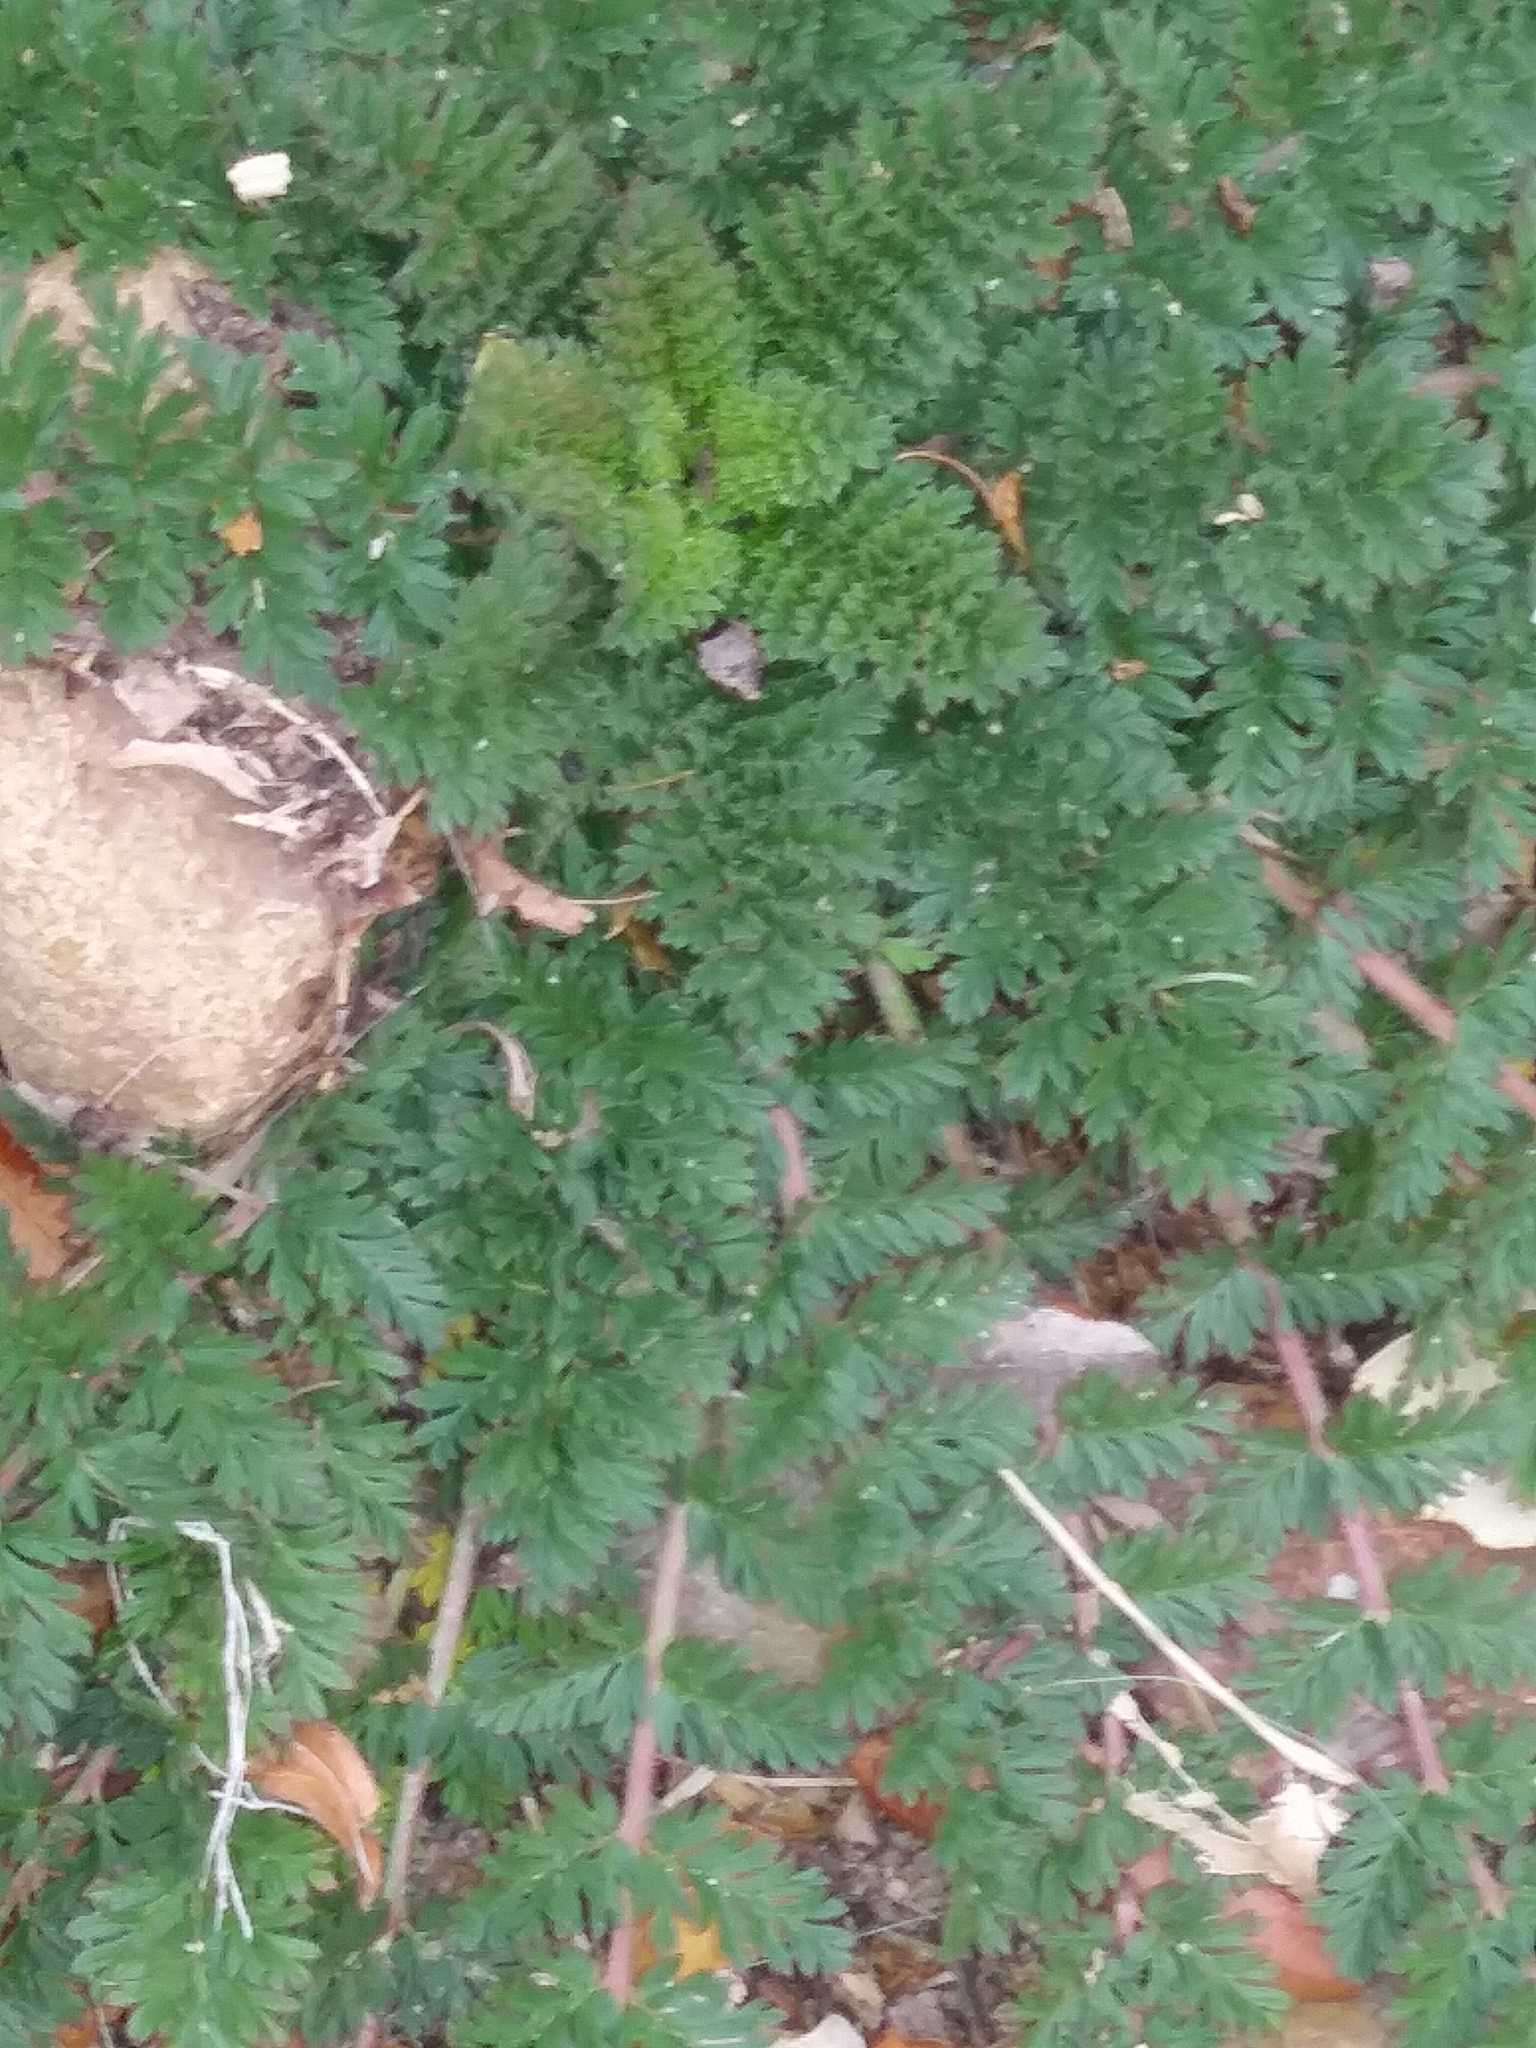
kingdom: Plantae
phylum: Tracheophyta
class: Magnoliopsida
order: Geraniales
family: Geraniaceae
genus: Erodium
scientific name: Erodium cicutarium
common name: Common stork's-bill
